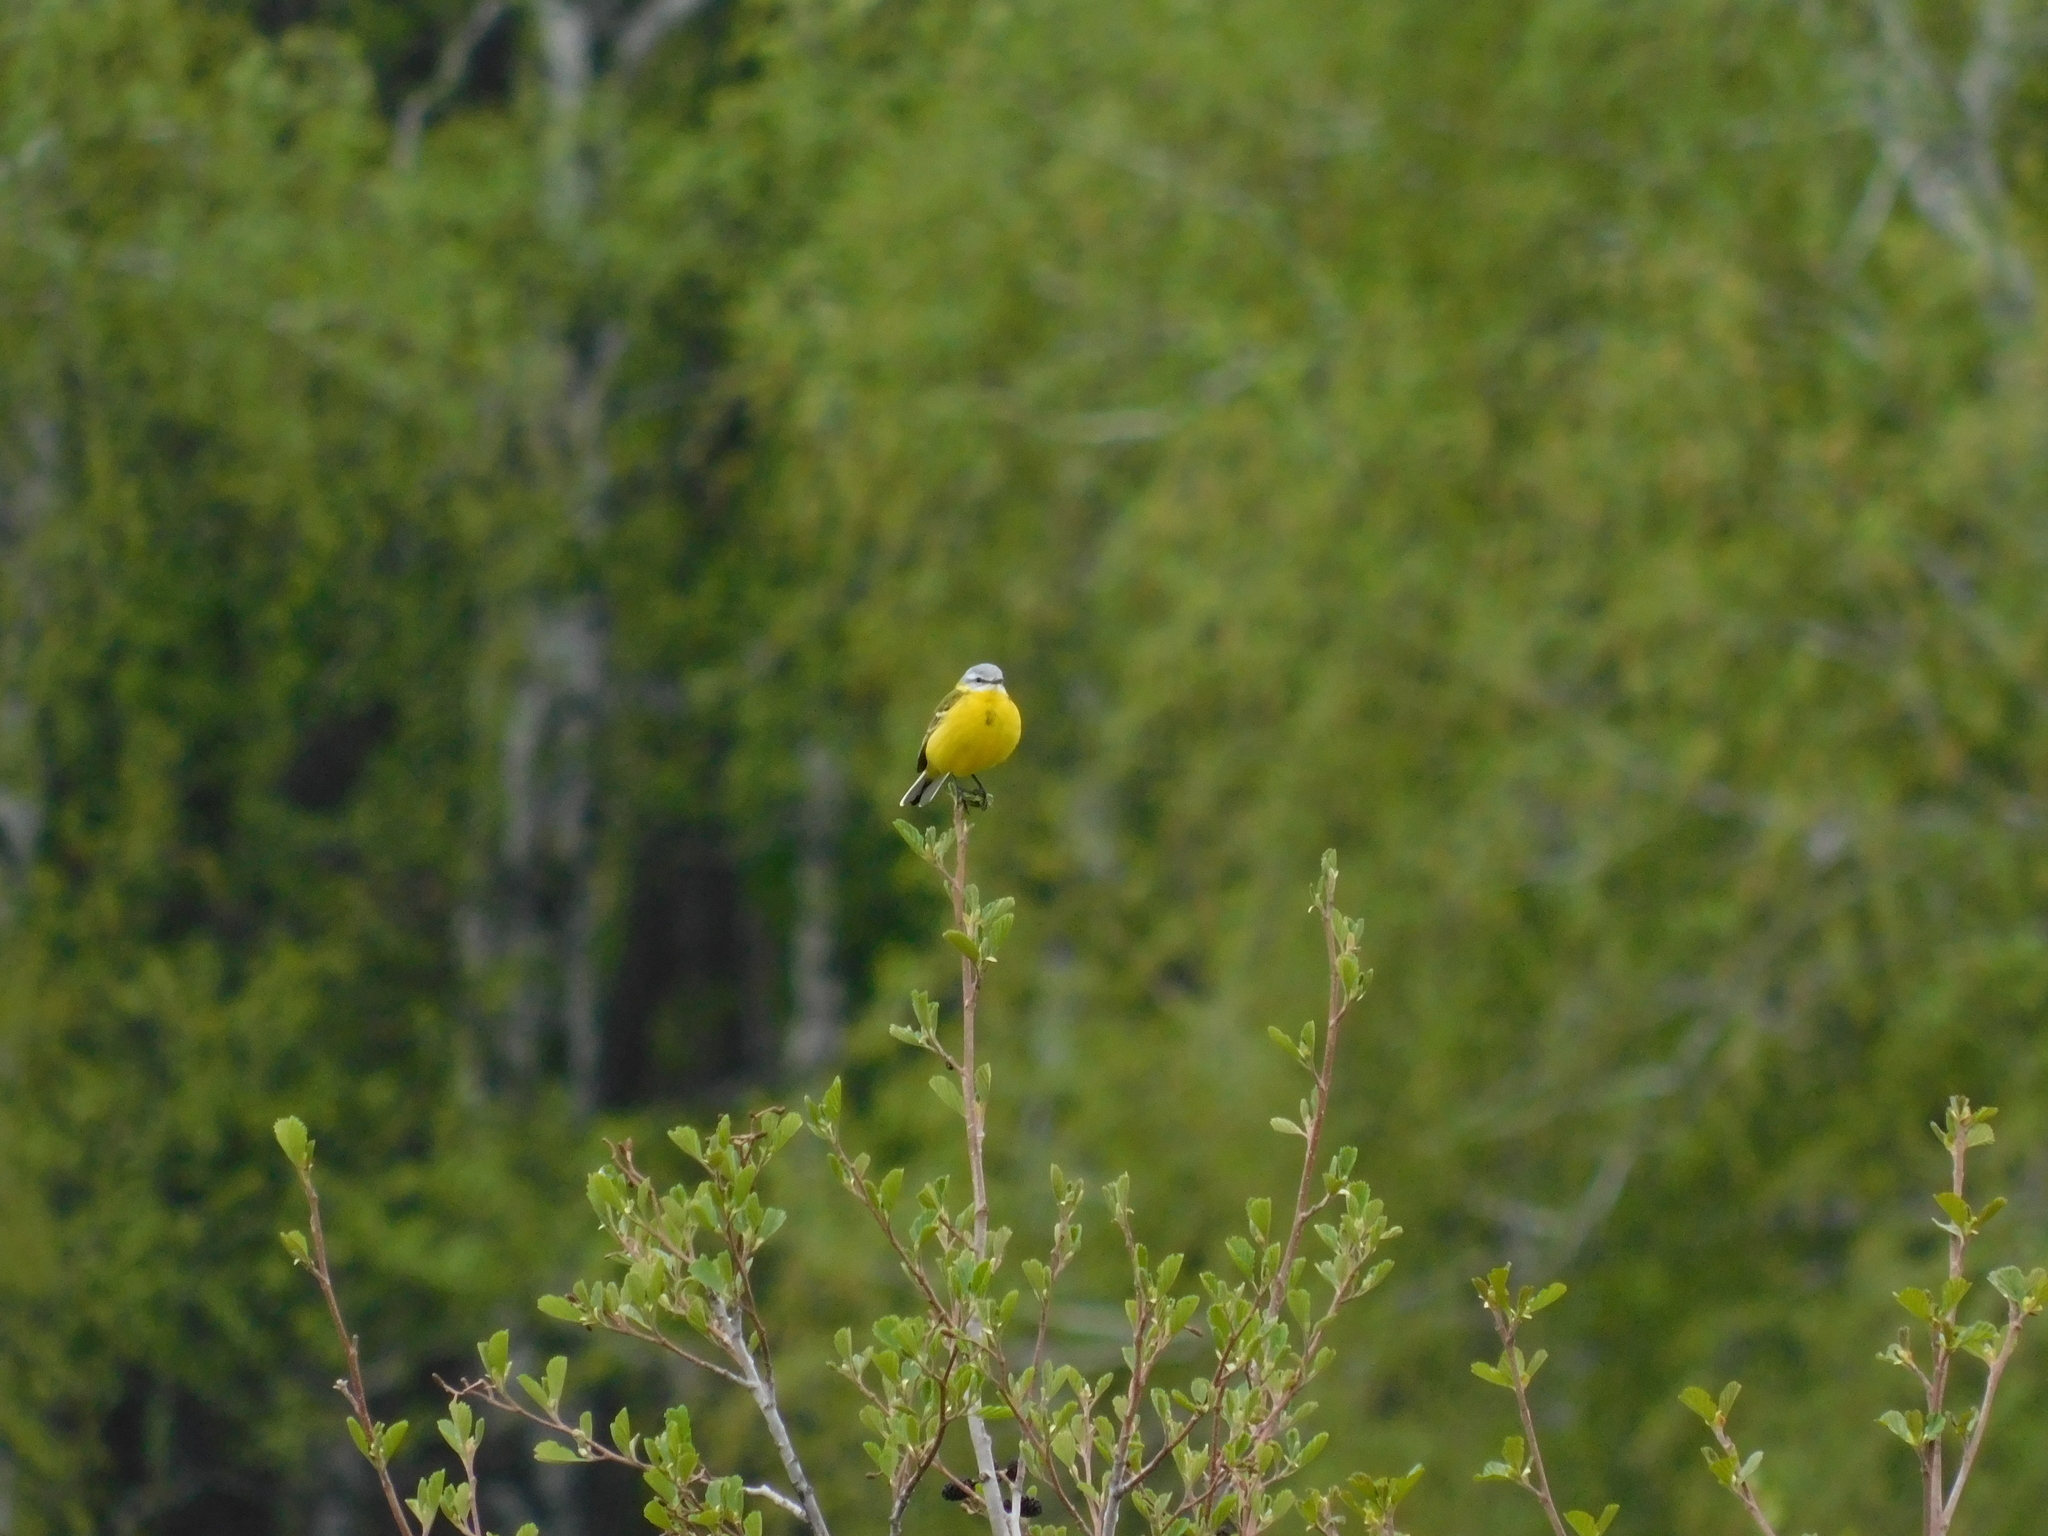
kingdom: Animalia
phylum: Chordata
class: Aves
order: Passeriformes
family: Motacillidae
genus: Motacilla
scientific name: Motacilla flava
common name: Western yellow wagtail
